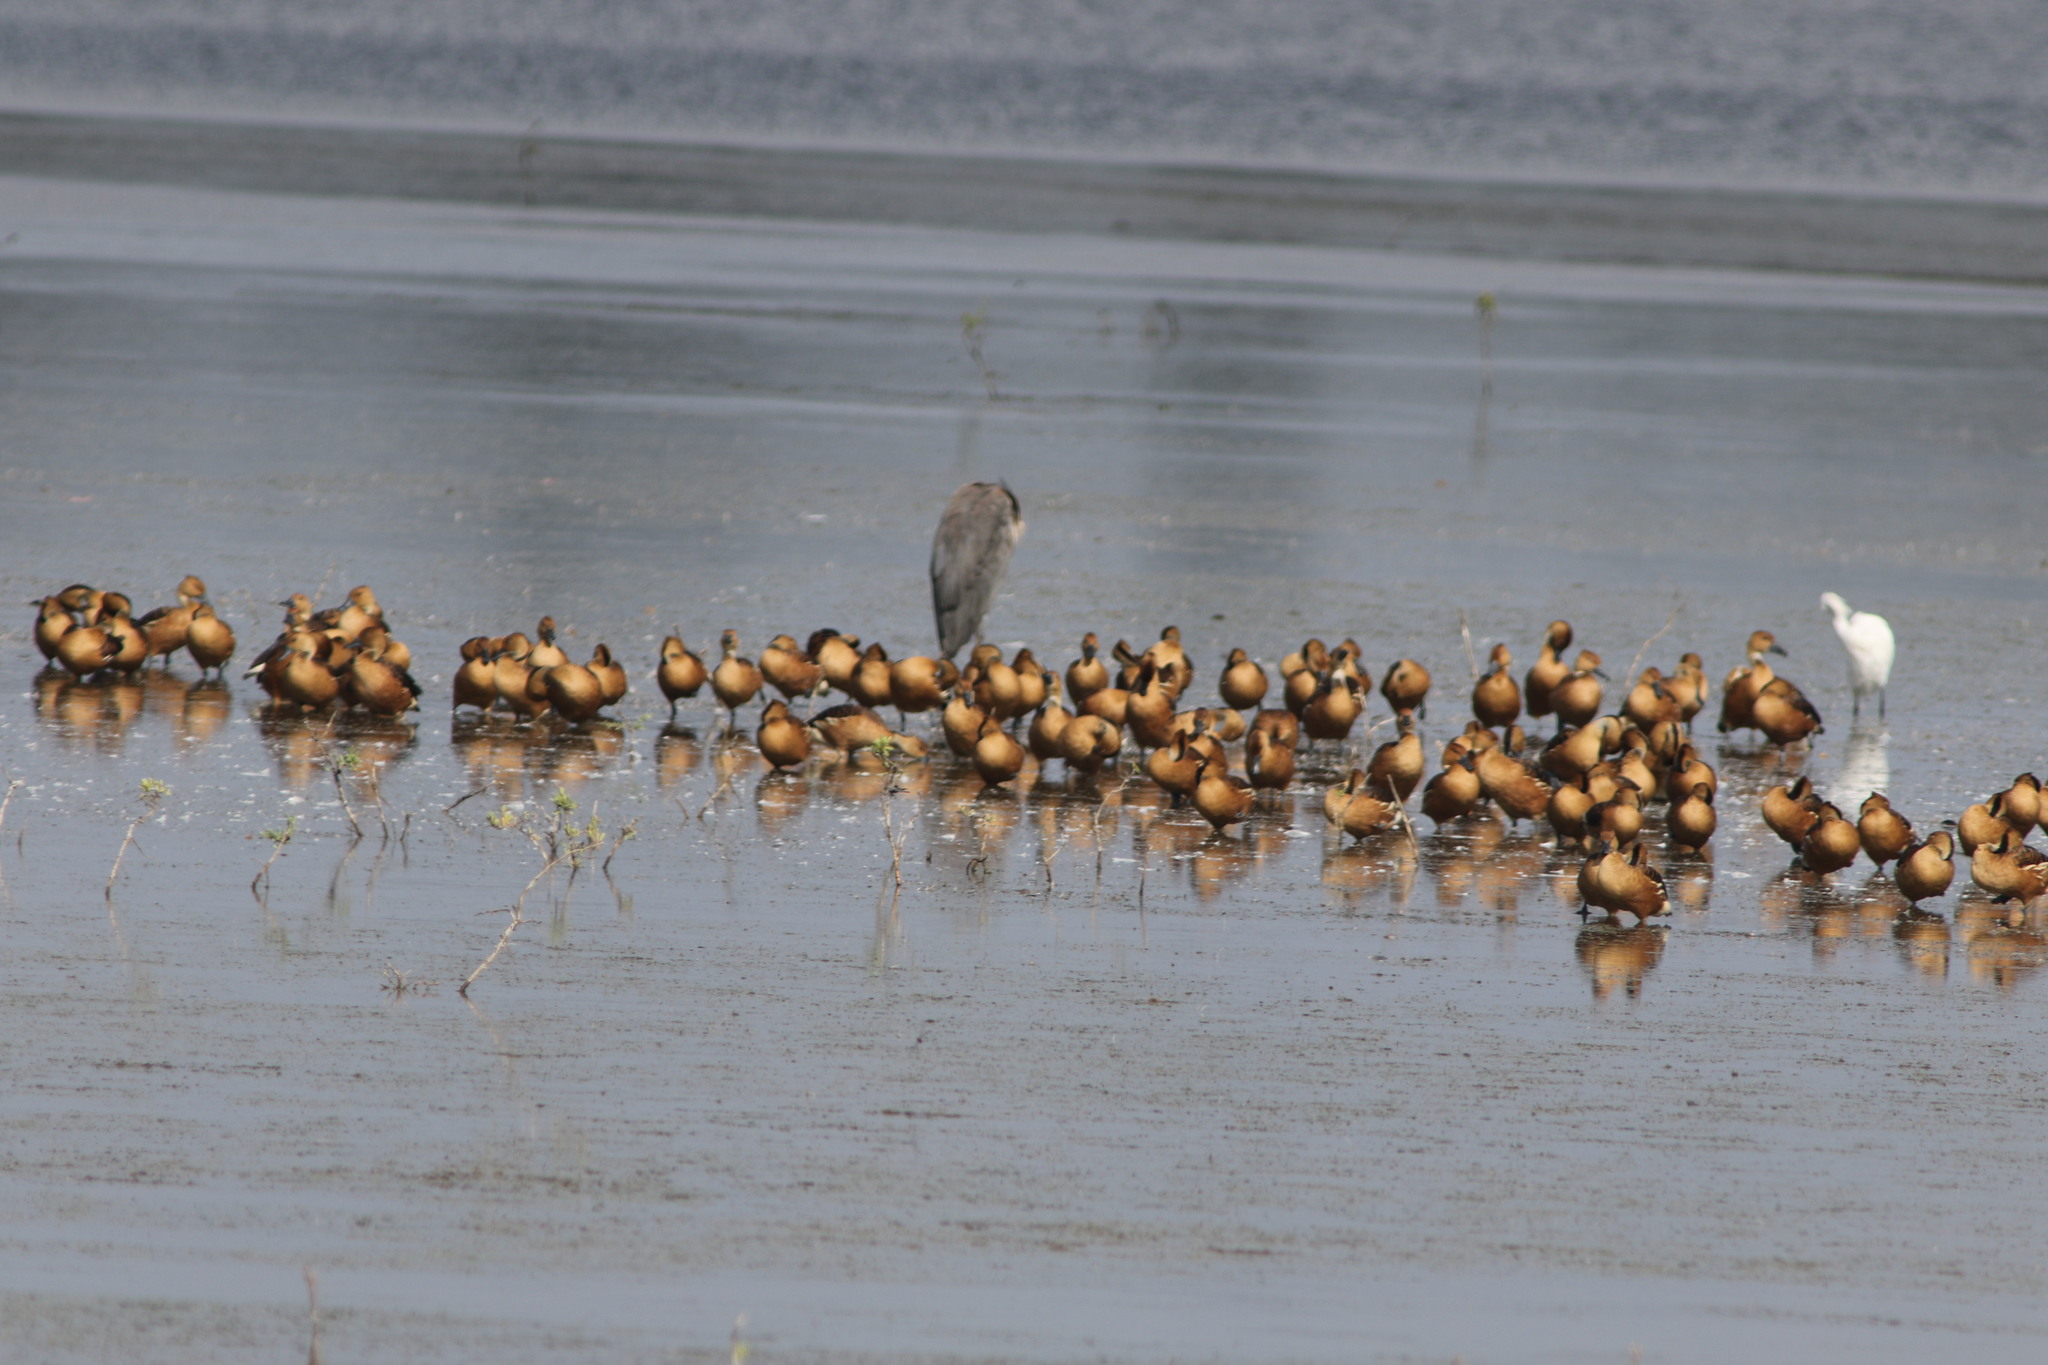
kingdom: Animalia
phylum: Chordata
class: Aves
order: Anseriformes
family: Anatidae
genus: Dendrocygna
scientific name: Dendrocygna bicolor
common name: Fulvous whistling duck
